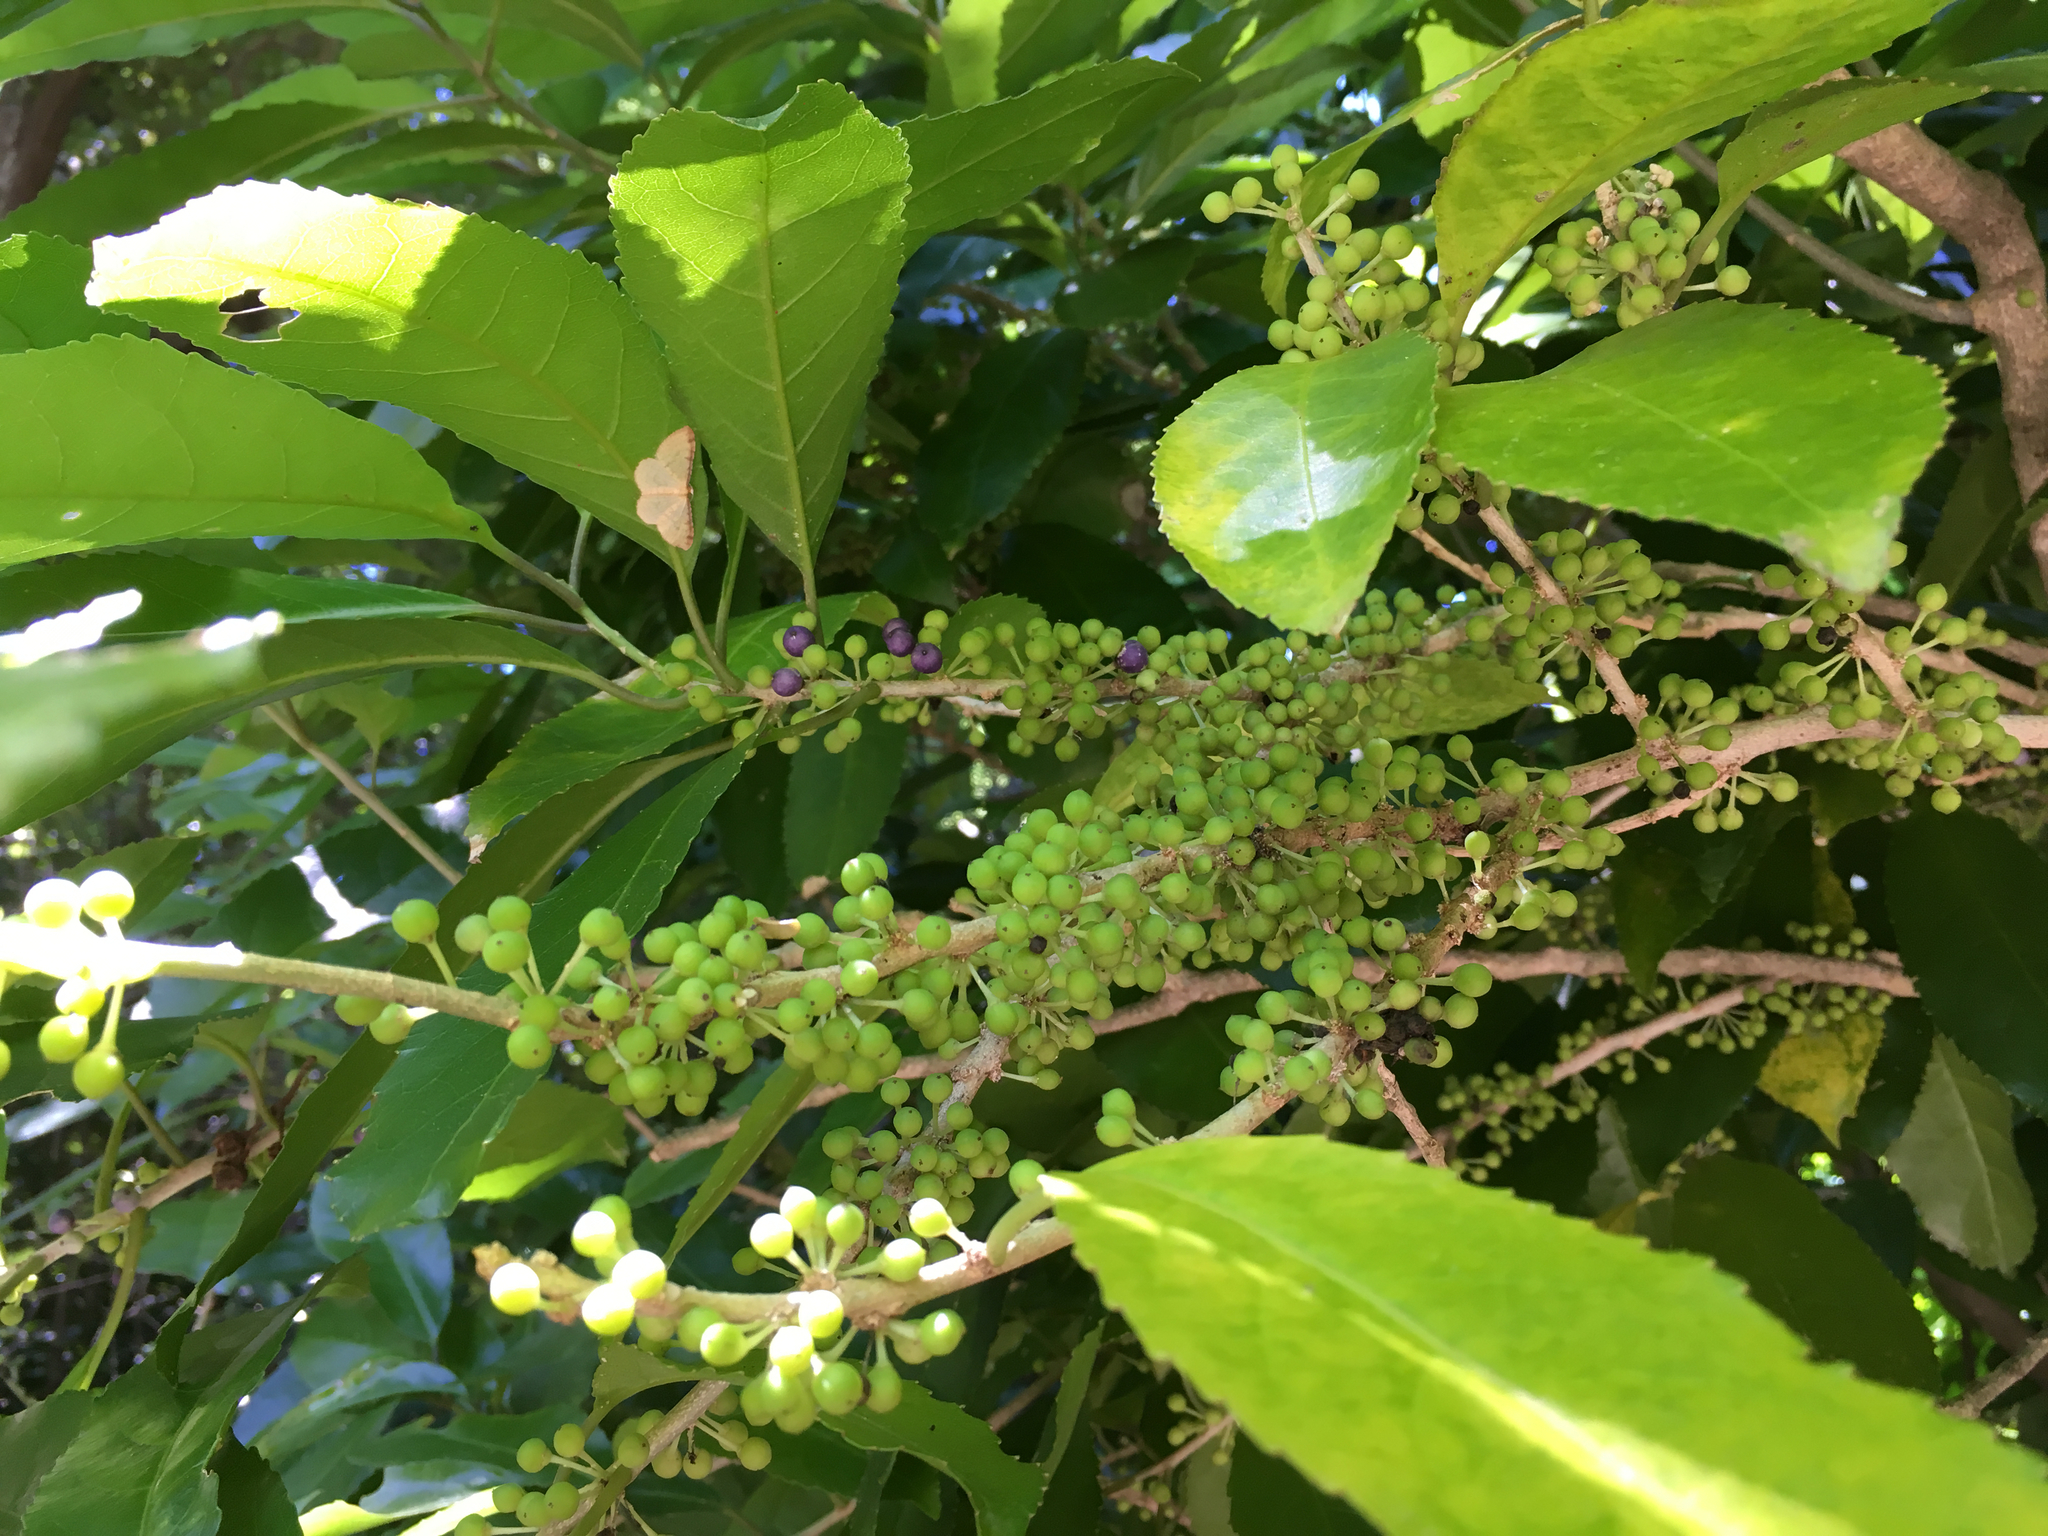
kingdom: Plantae
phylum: Tracheophyta
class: Magnoliopsida
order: Malpighiales
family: Violaceae
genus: Melicytus
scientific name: Melicytus ramiflorus
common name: Mahoe
